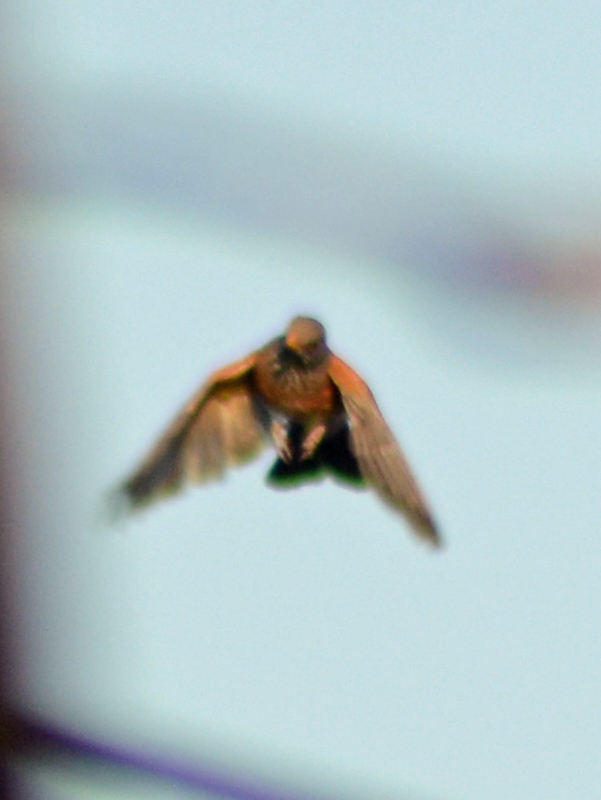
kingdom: Animalia
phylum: Chordata
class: Aves
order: Passeriformes
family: Turdidae
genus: Turdus
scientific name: Turdus rufopalliatus
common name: Rufous-backed robin
